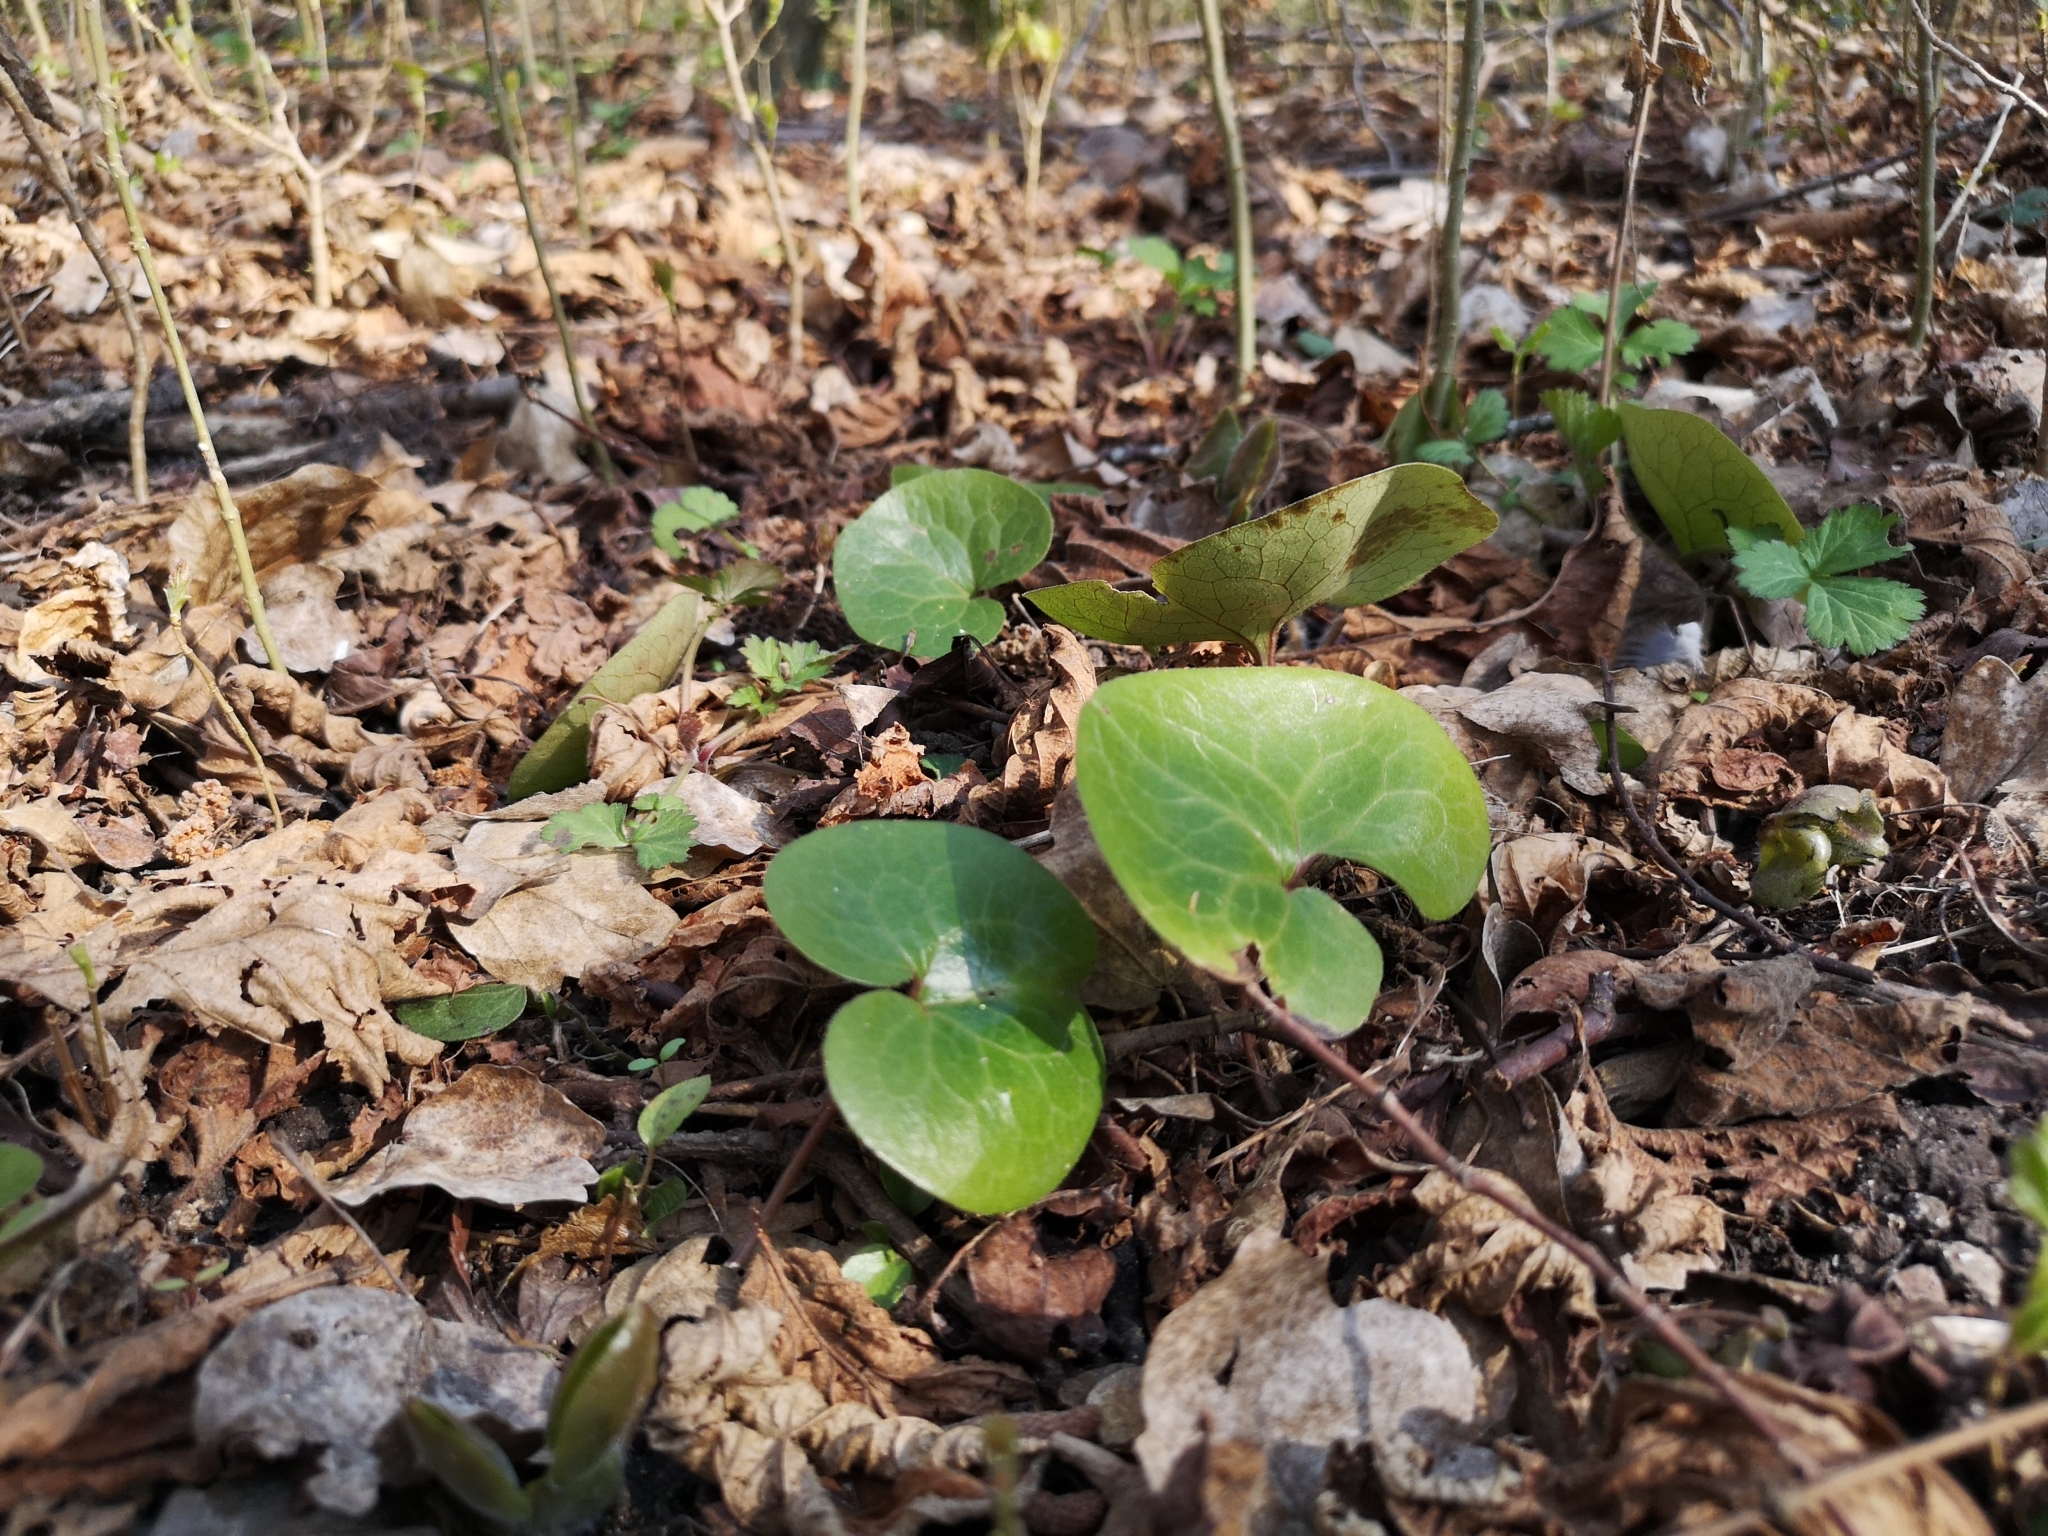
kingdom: Plantae
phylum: Tracheophyta
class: Magnoliopsida
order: Piperales
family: Aristolochiaceae
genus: Asarum
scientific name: Asarum europaeum
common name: Asarabacca
